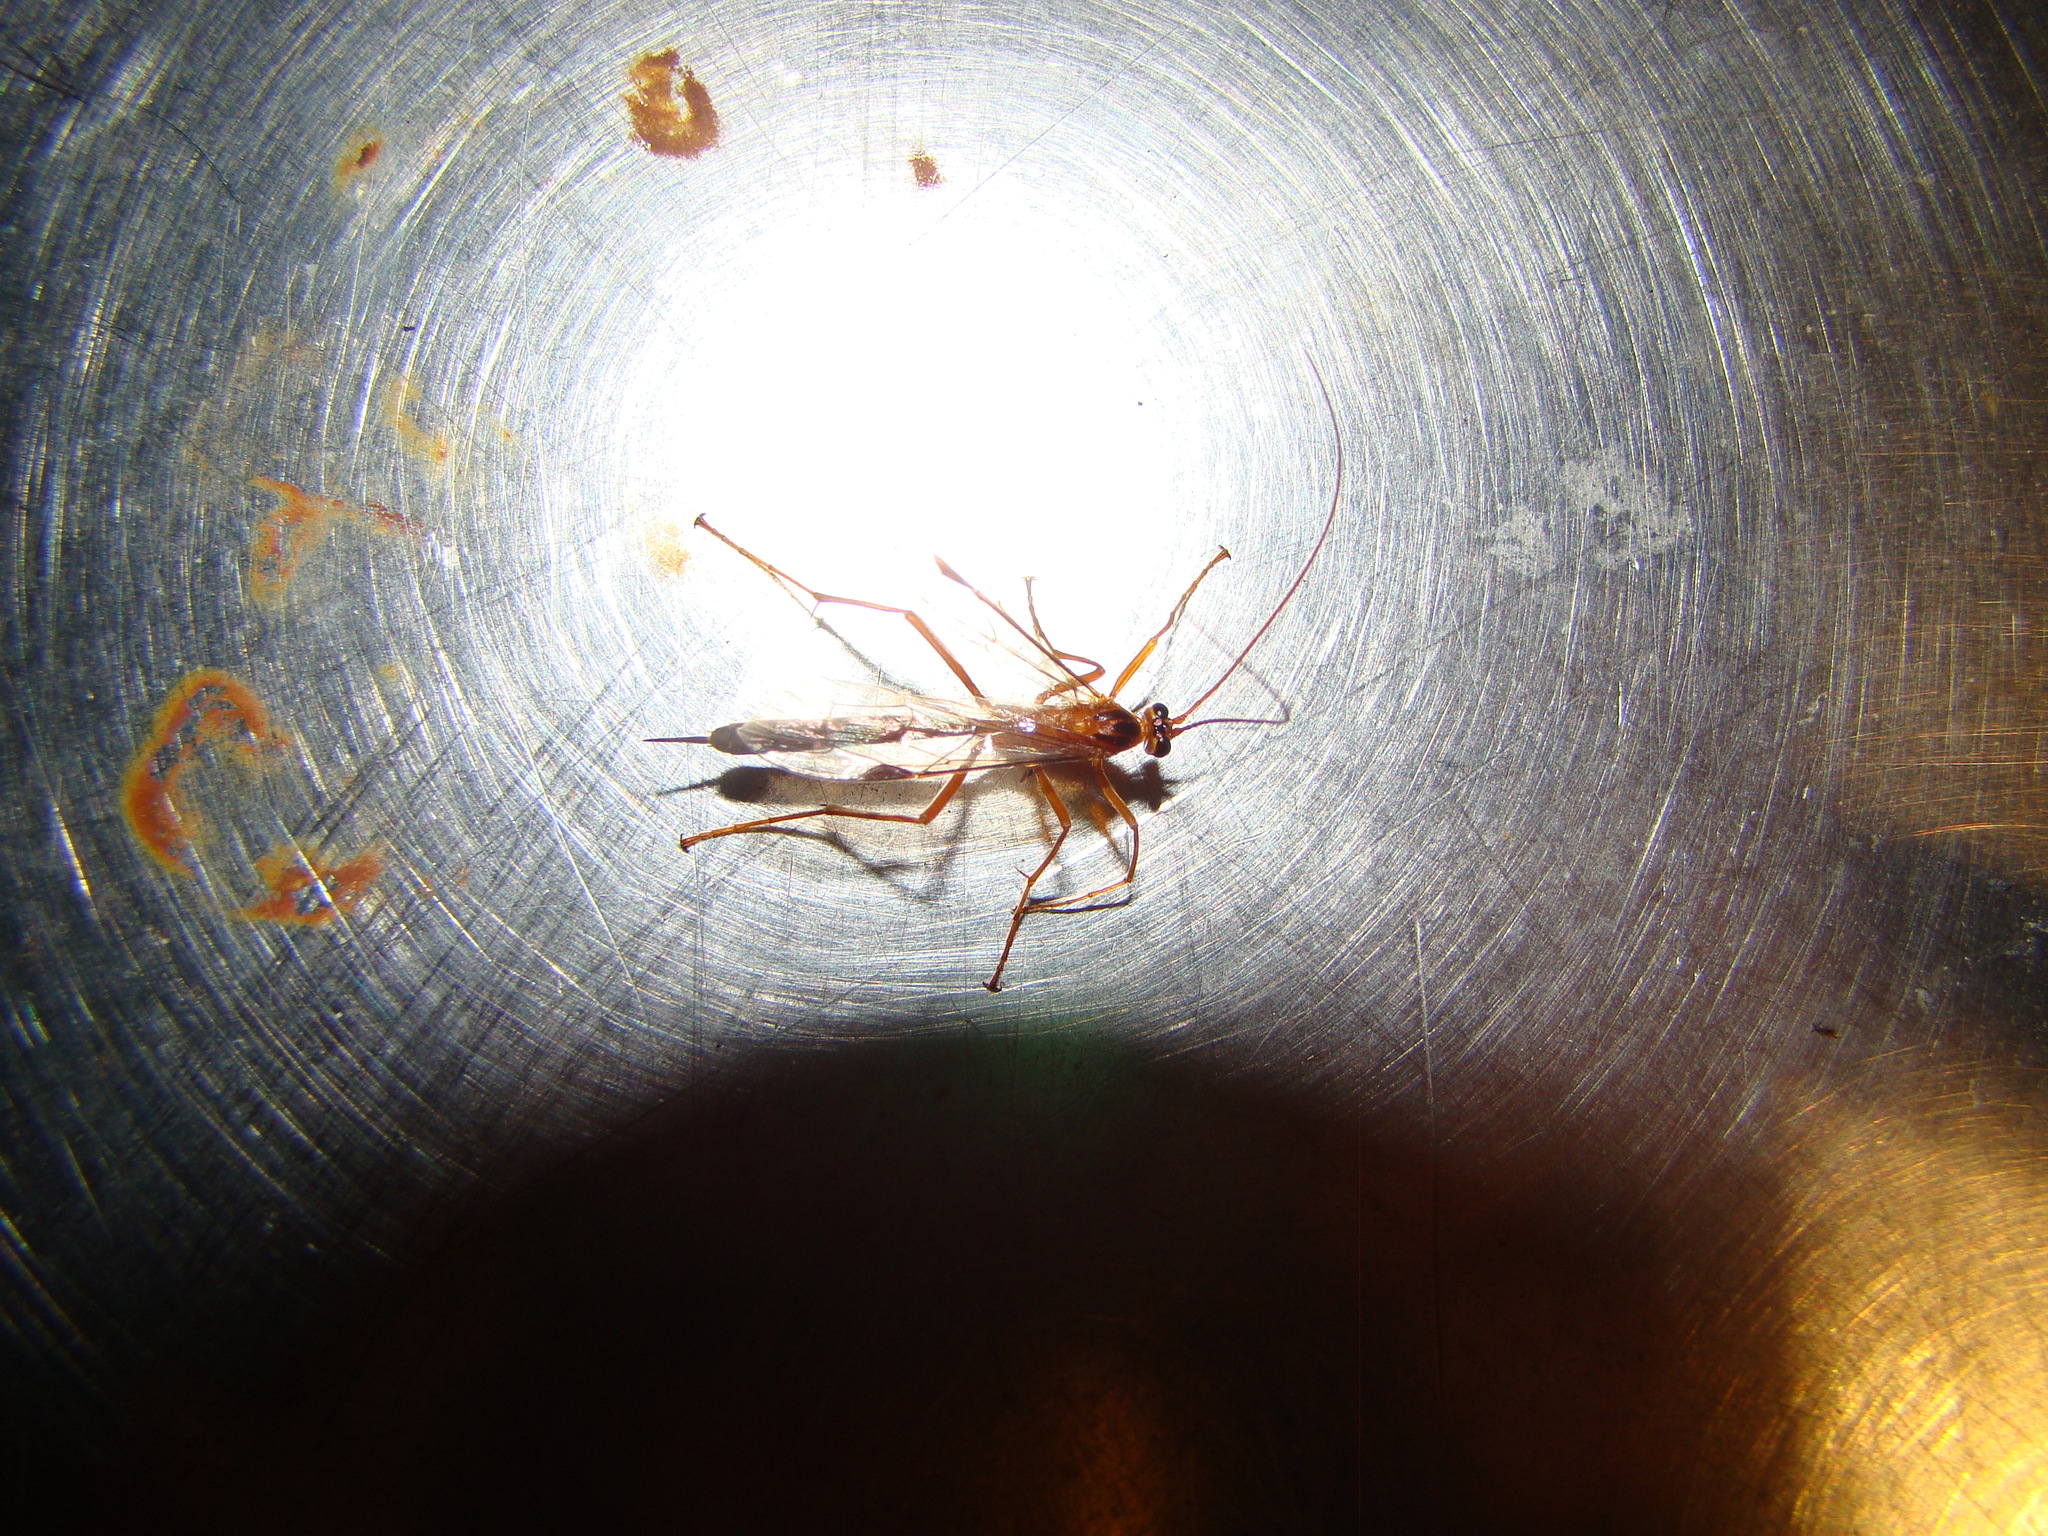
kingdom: Animalia
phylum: Arthropoda
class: Insecta
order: Hymenoptera
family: Ichneumonidae
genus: Netelia
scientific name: Netelia ephippiata
